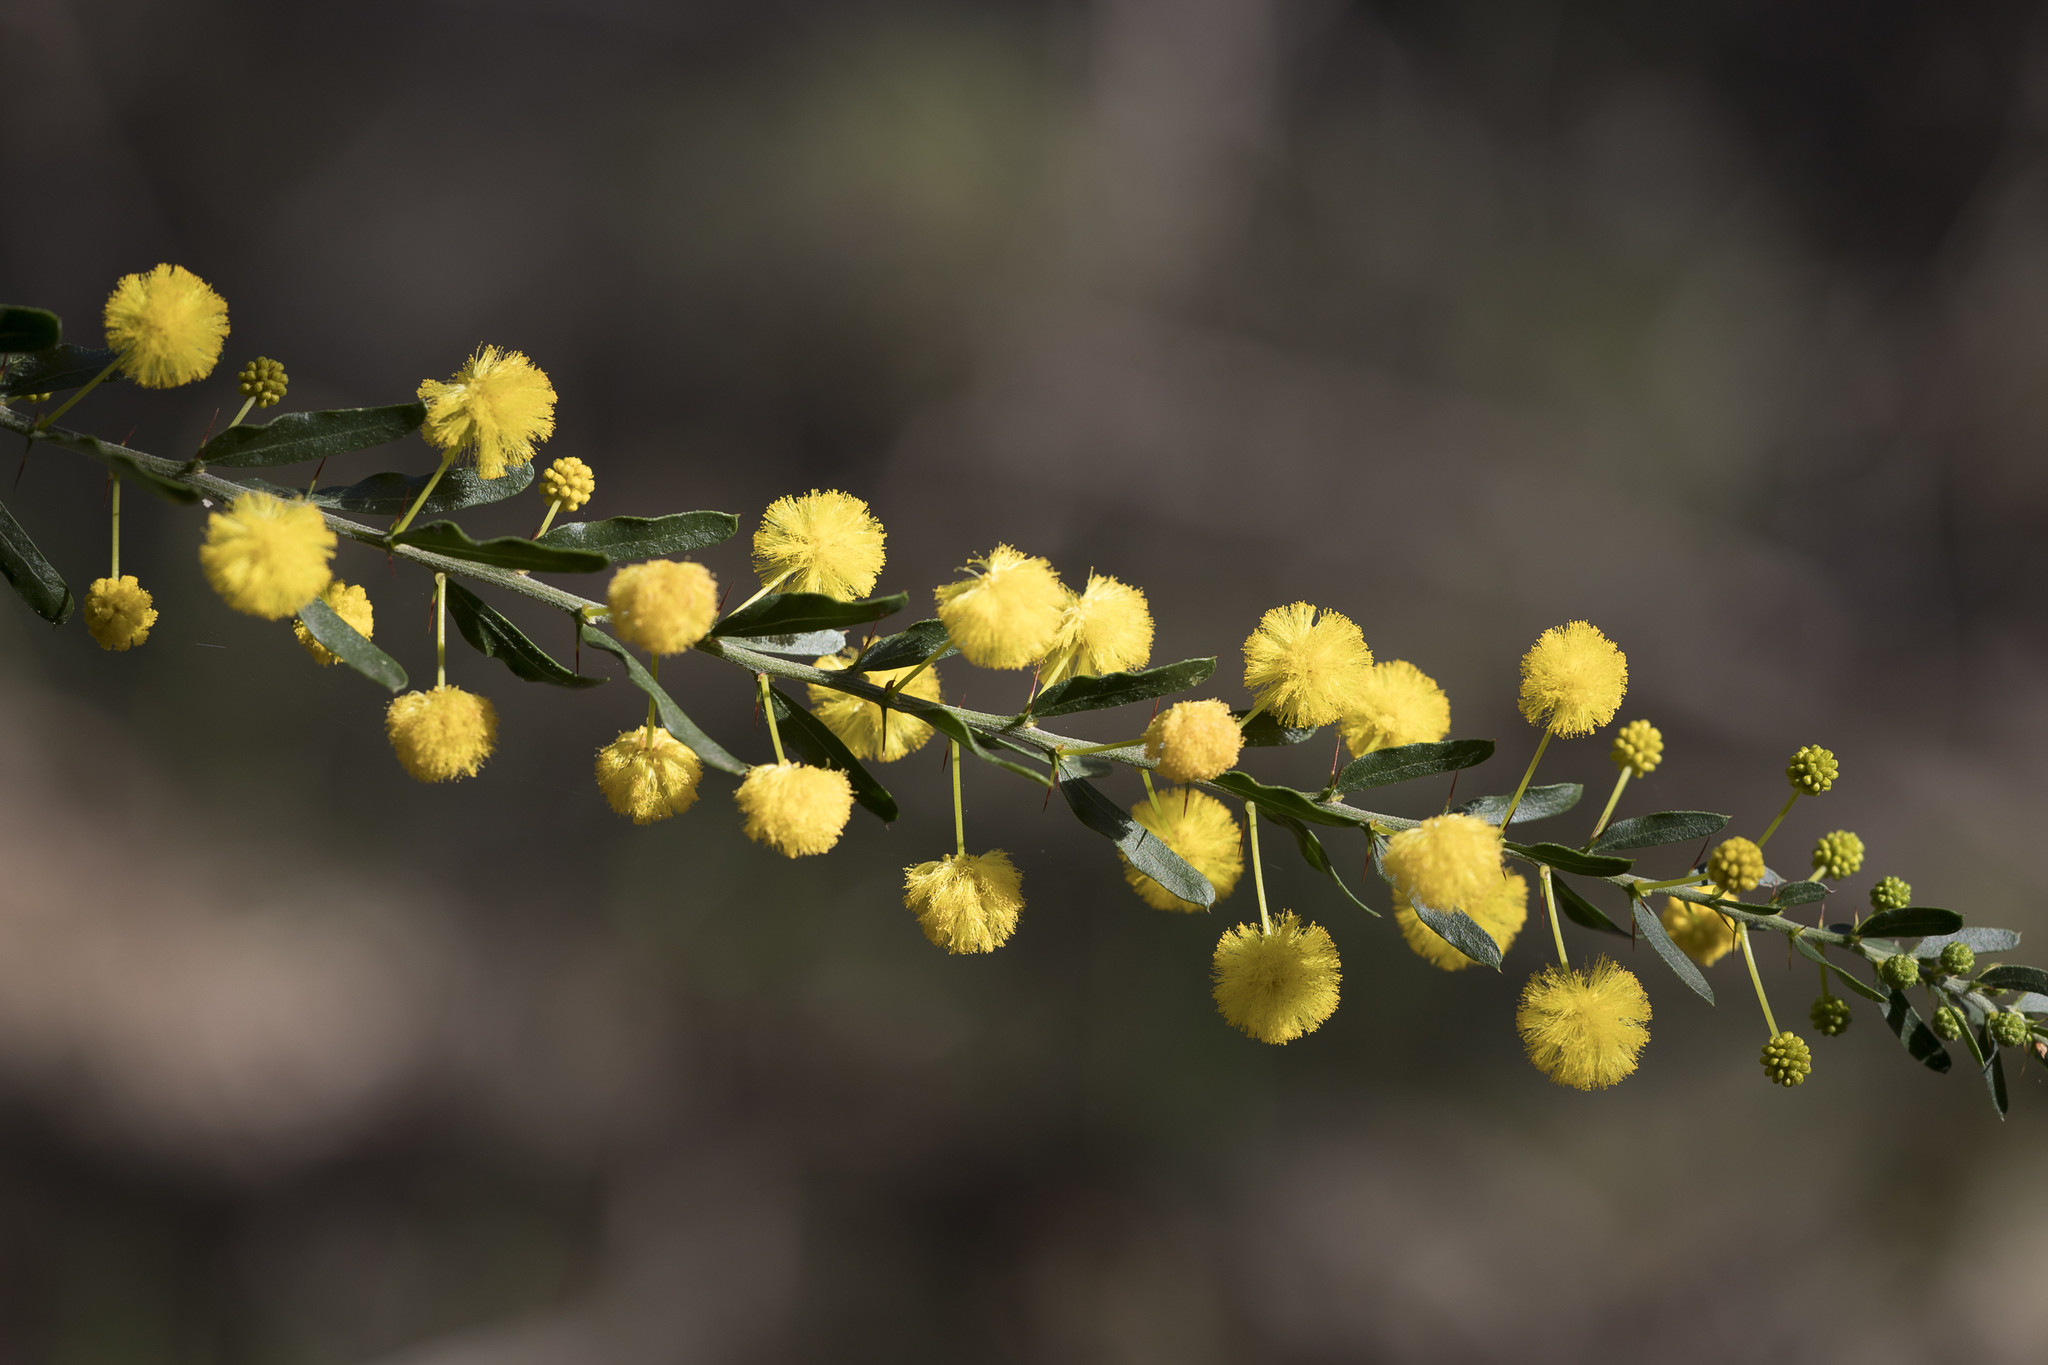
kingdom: Plantae
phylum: Tracheophyta
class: Magnoliopsida
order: Fabales
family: Fabaceae
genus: Acacia
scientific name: Acacia paradoxa
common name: Paradox acacia
